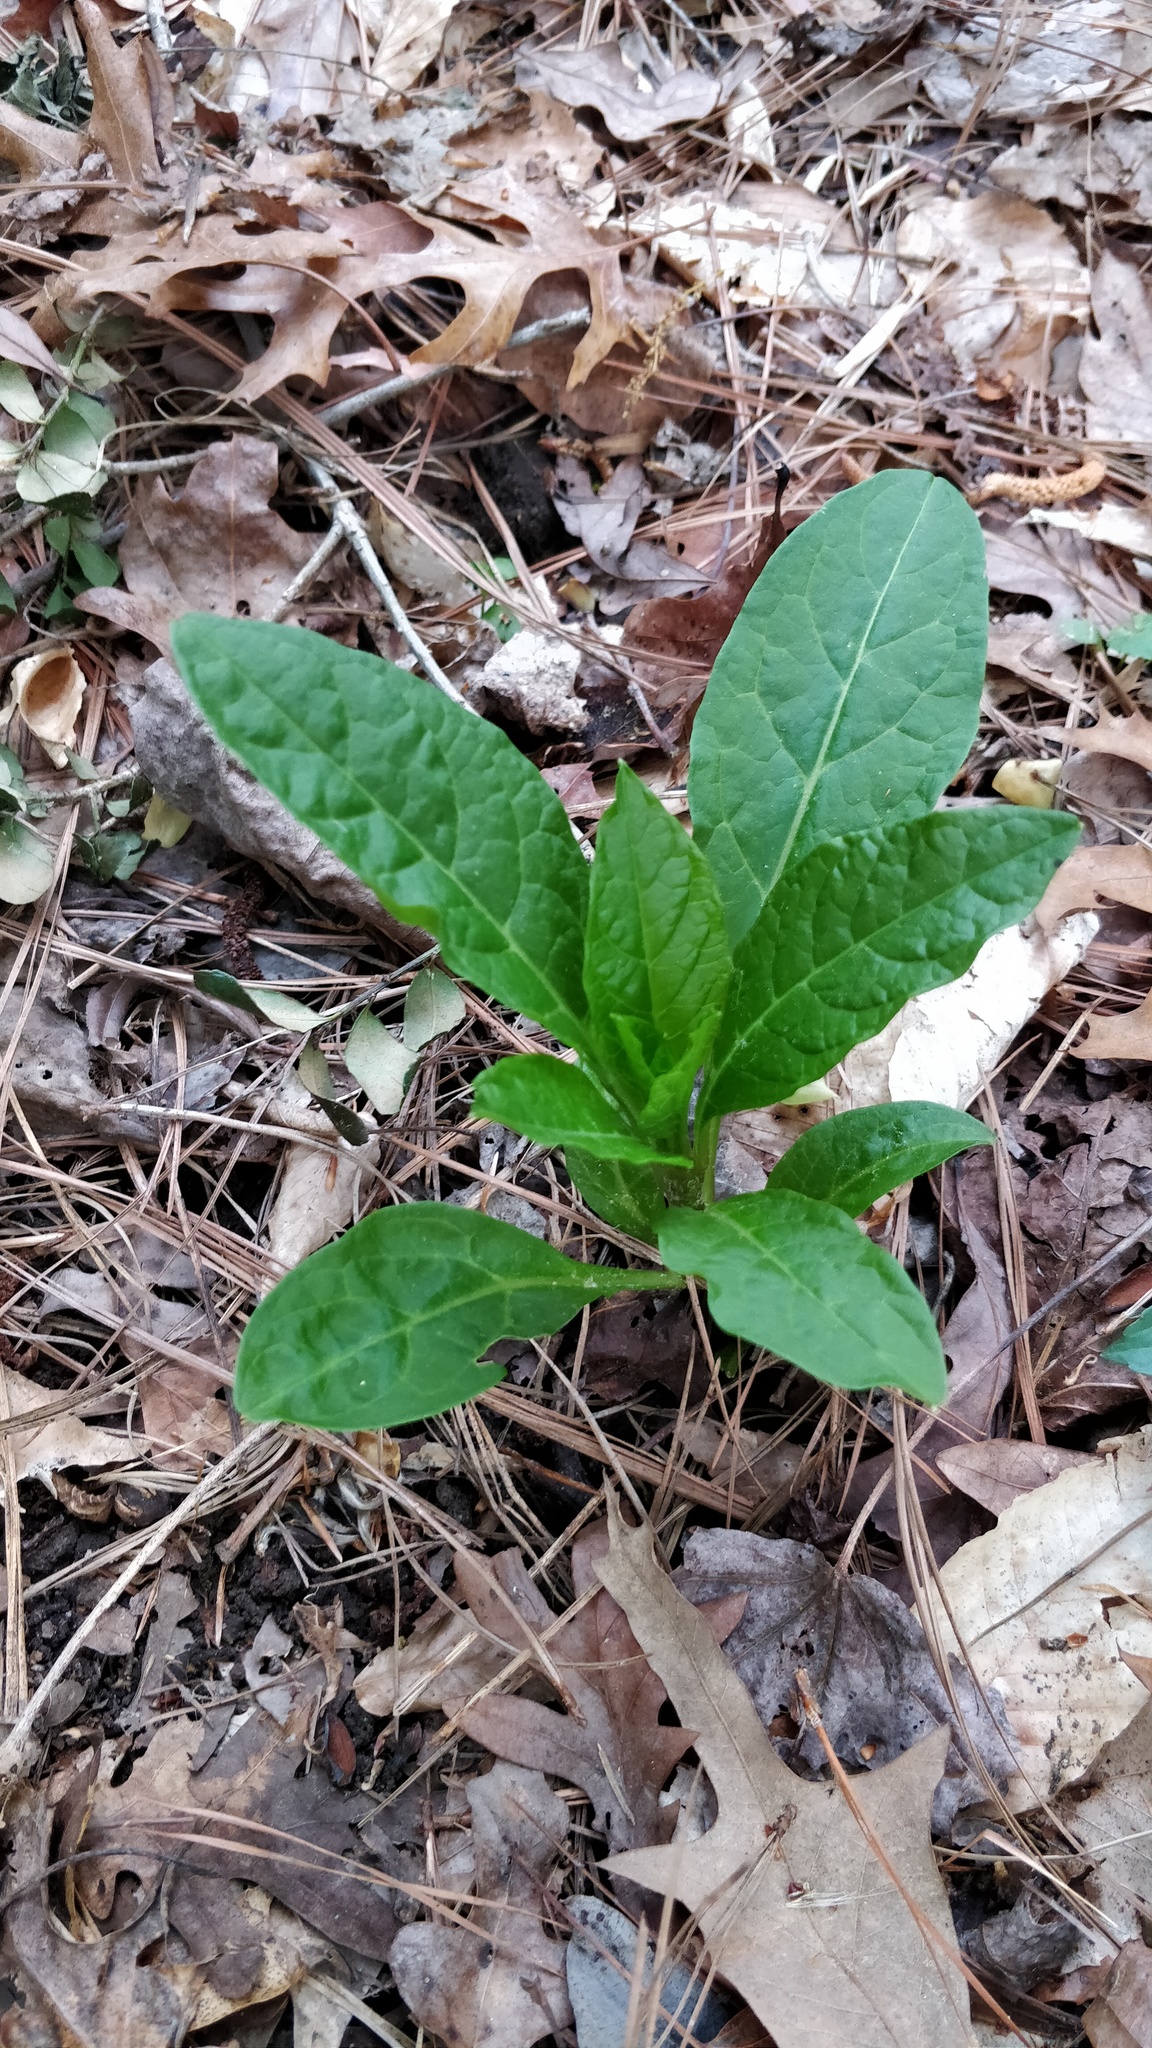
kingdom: Plantae
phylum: Tracheophyta
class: Magnoliopsida
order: Caryophyllales
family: Phytolaccaceae
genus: Phytolacca
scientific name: Phytolacca americana
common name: American pokeweed
